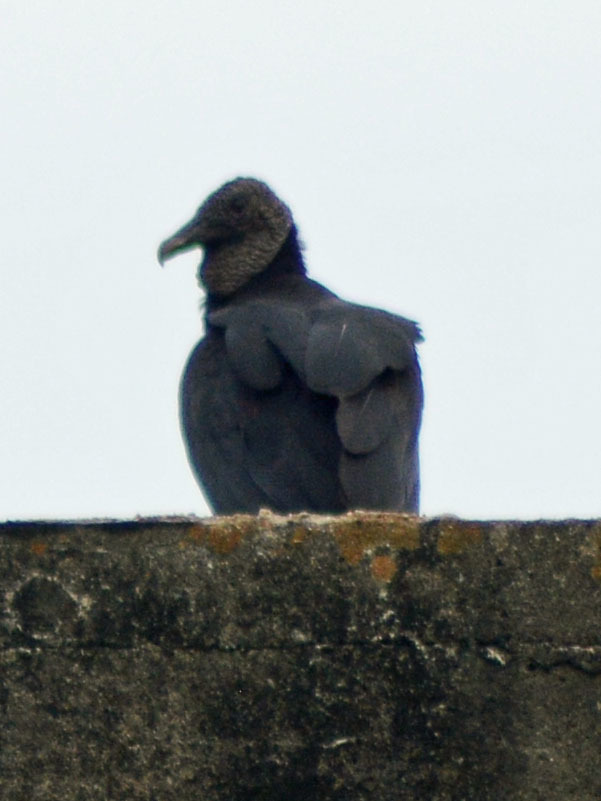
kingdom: Animalia
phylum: Chordata
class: Aves
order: Accipitriformes
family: Cathartidae
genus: Coragyps
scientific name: Coragyps atratus
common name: Black vulture
